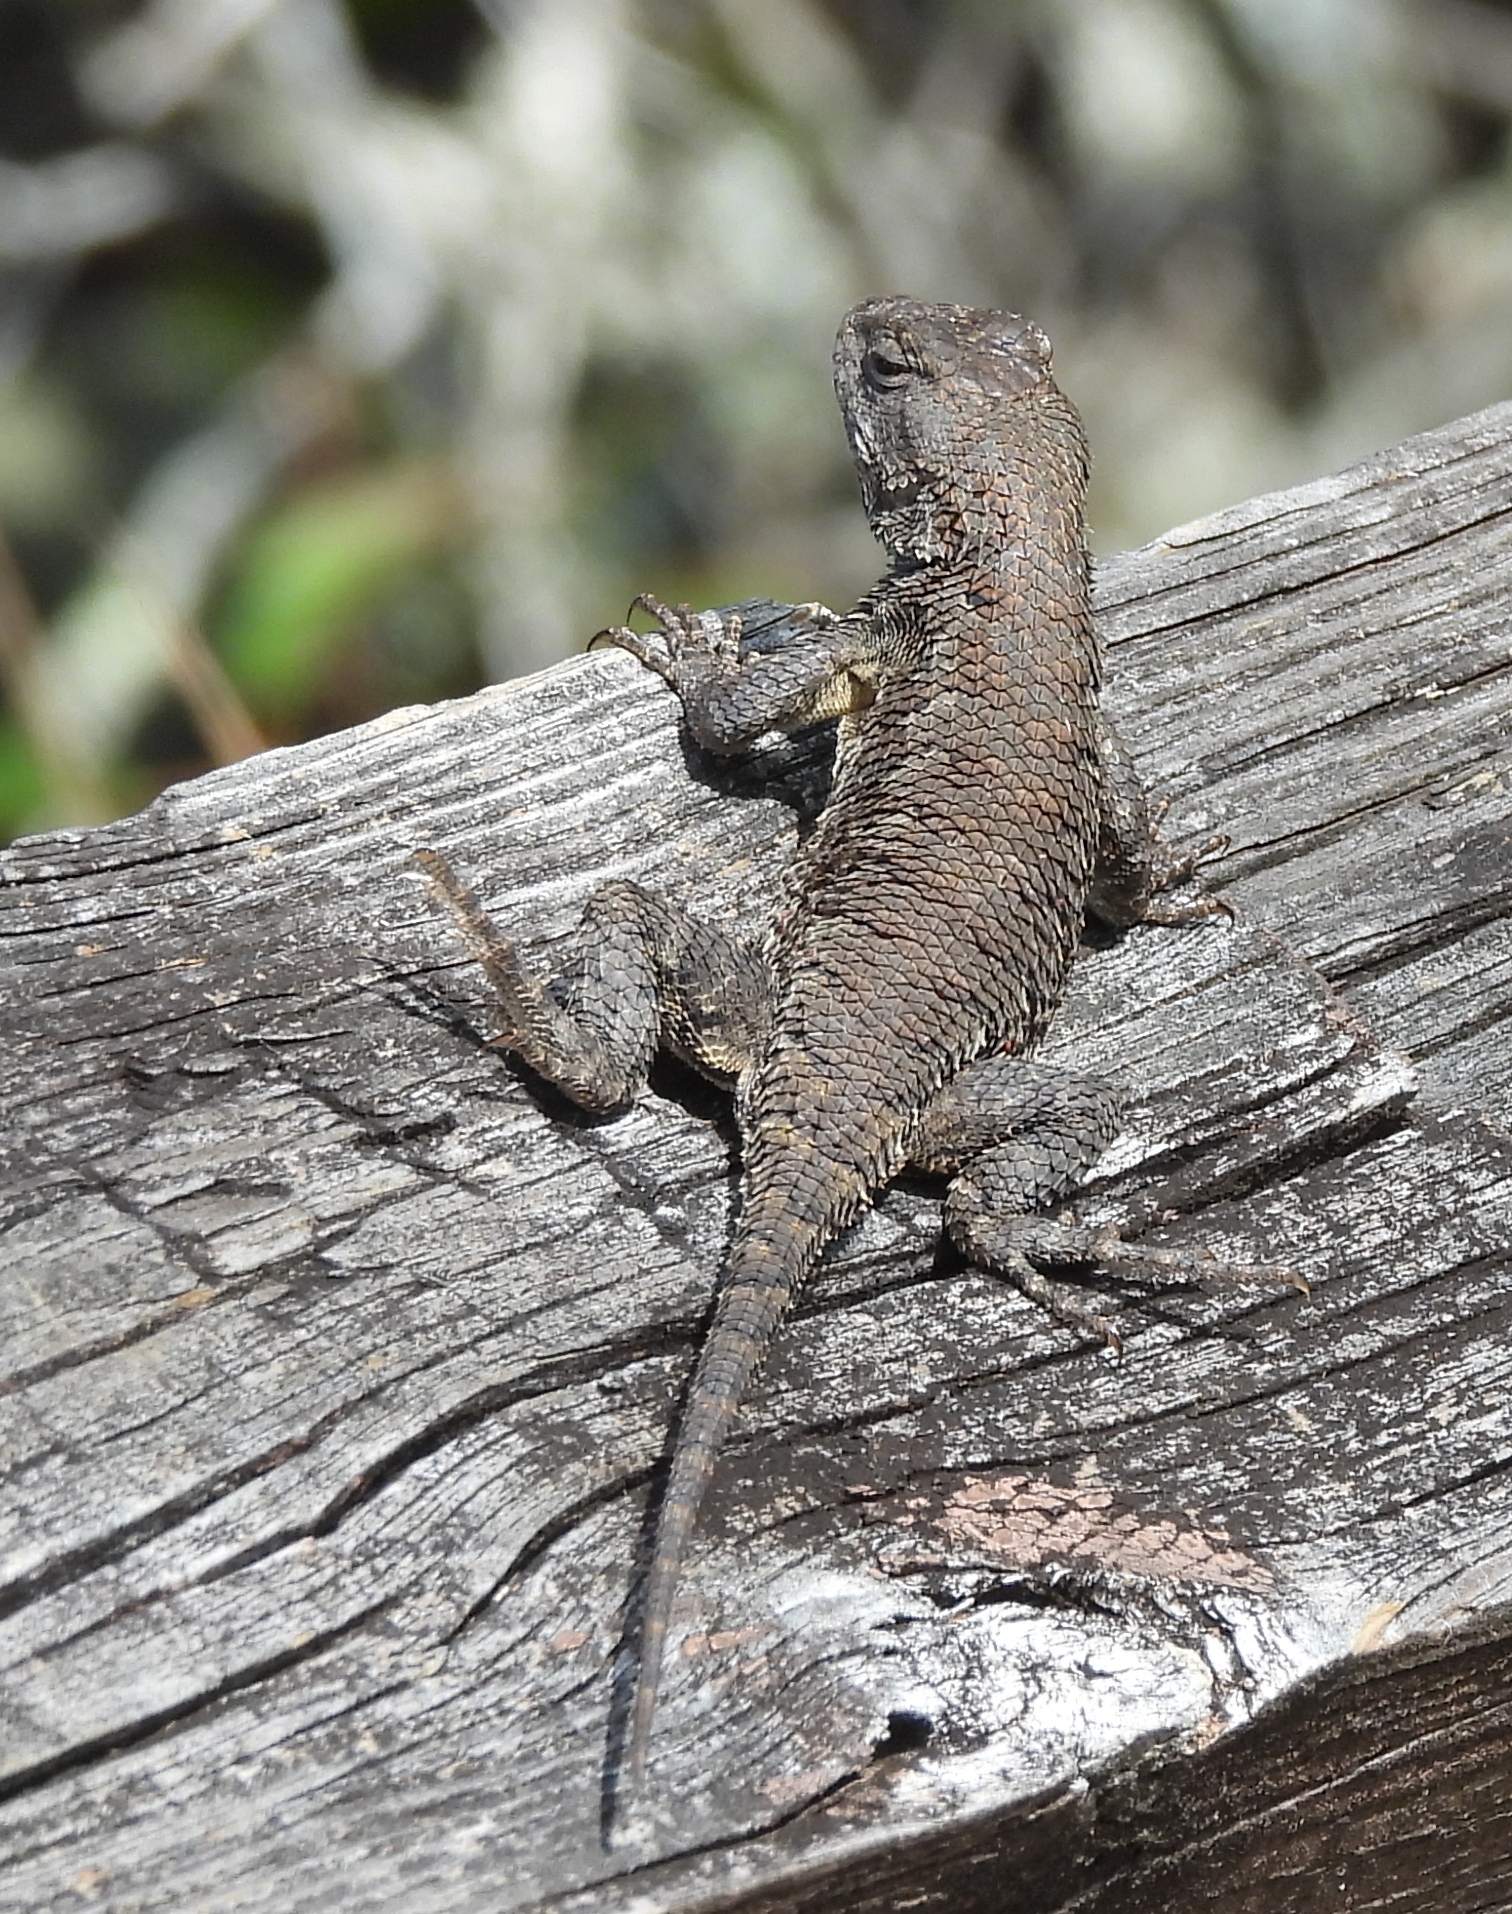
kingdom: Animalia
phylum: Chordata
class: Squamata
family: Phrynosomatidae
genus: Sceloporus
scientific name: Sceloporus undulatus
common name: Eastern fence lizard
